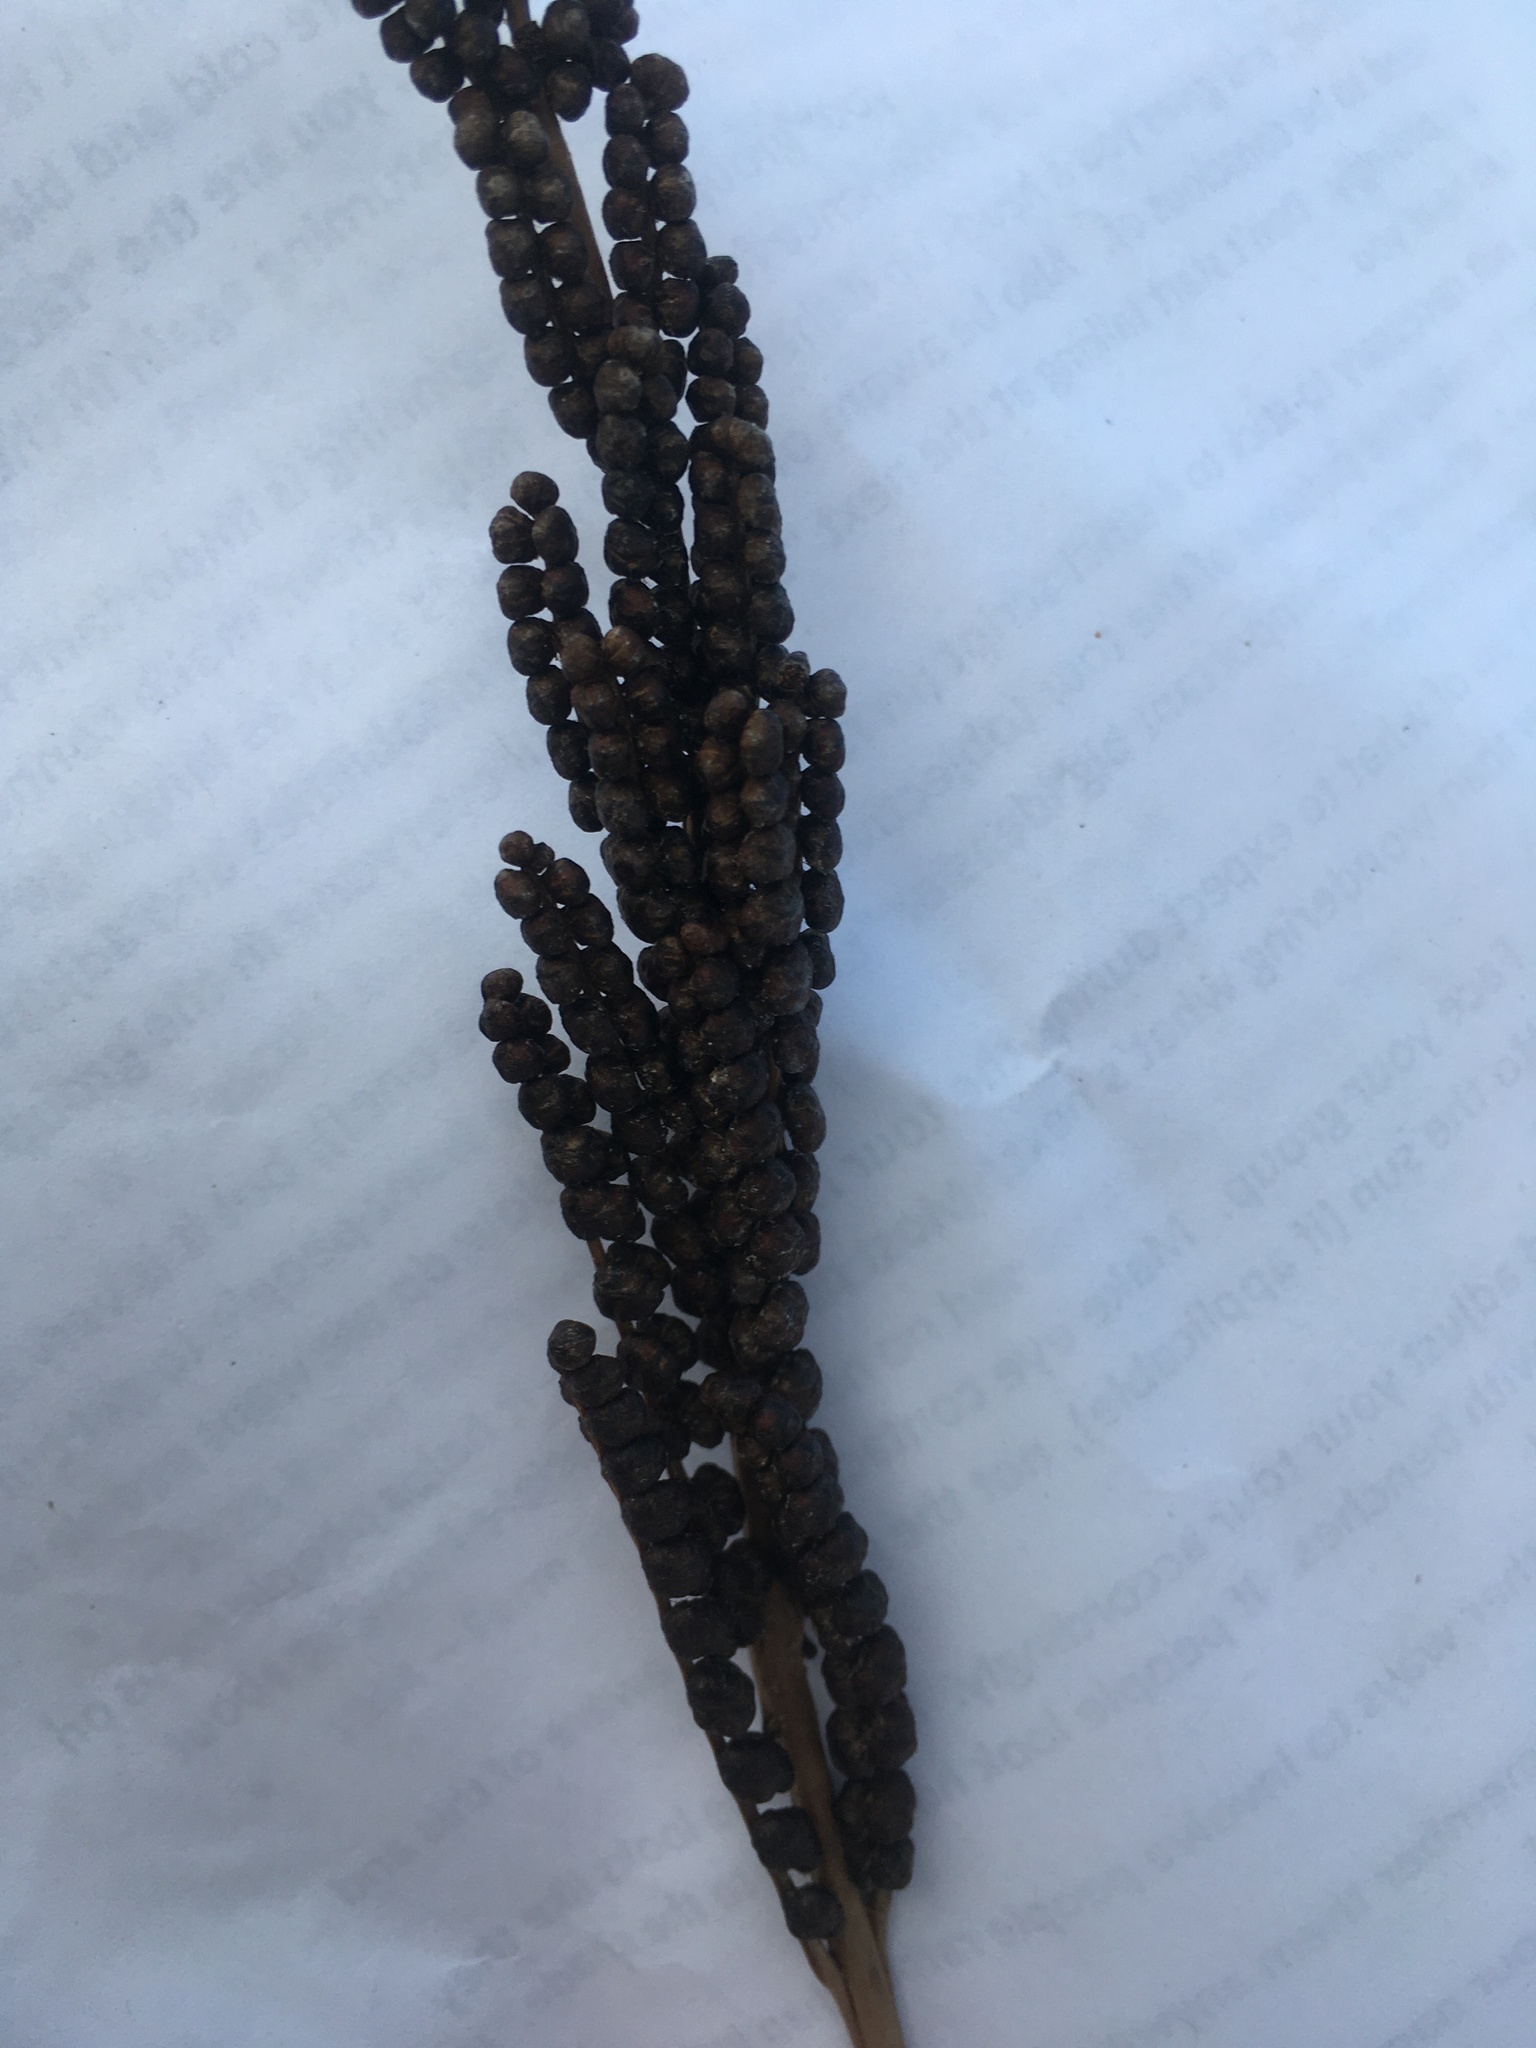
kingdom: Plantae
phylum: Tracheophyta
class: Polypodiopsida
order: Polypodiales
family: Onocleaceae
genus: Onoclea
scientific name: Onoclea sensibilis
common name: Sensitive fern
